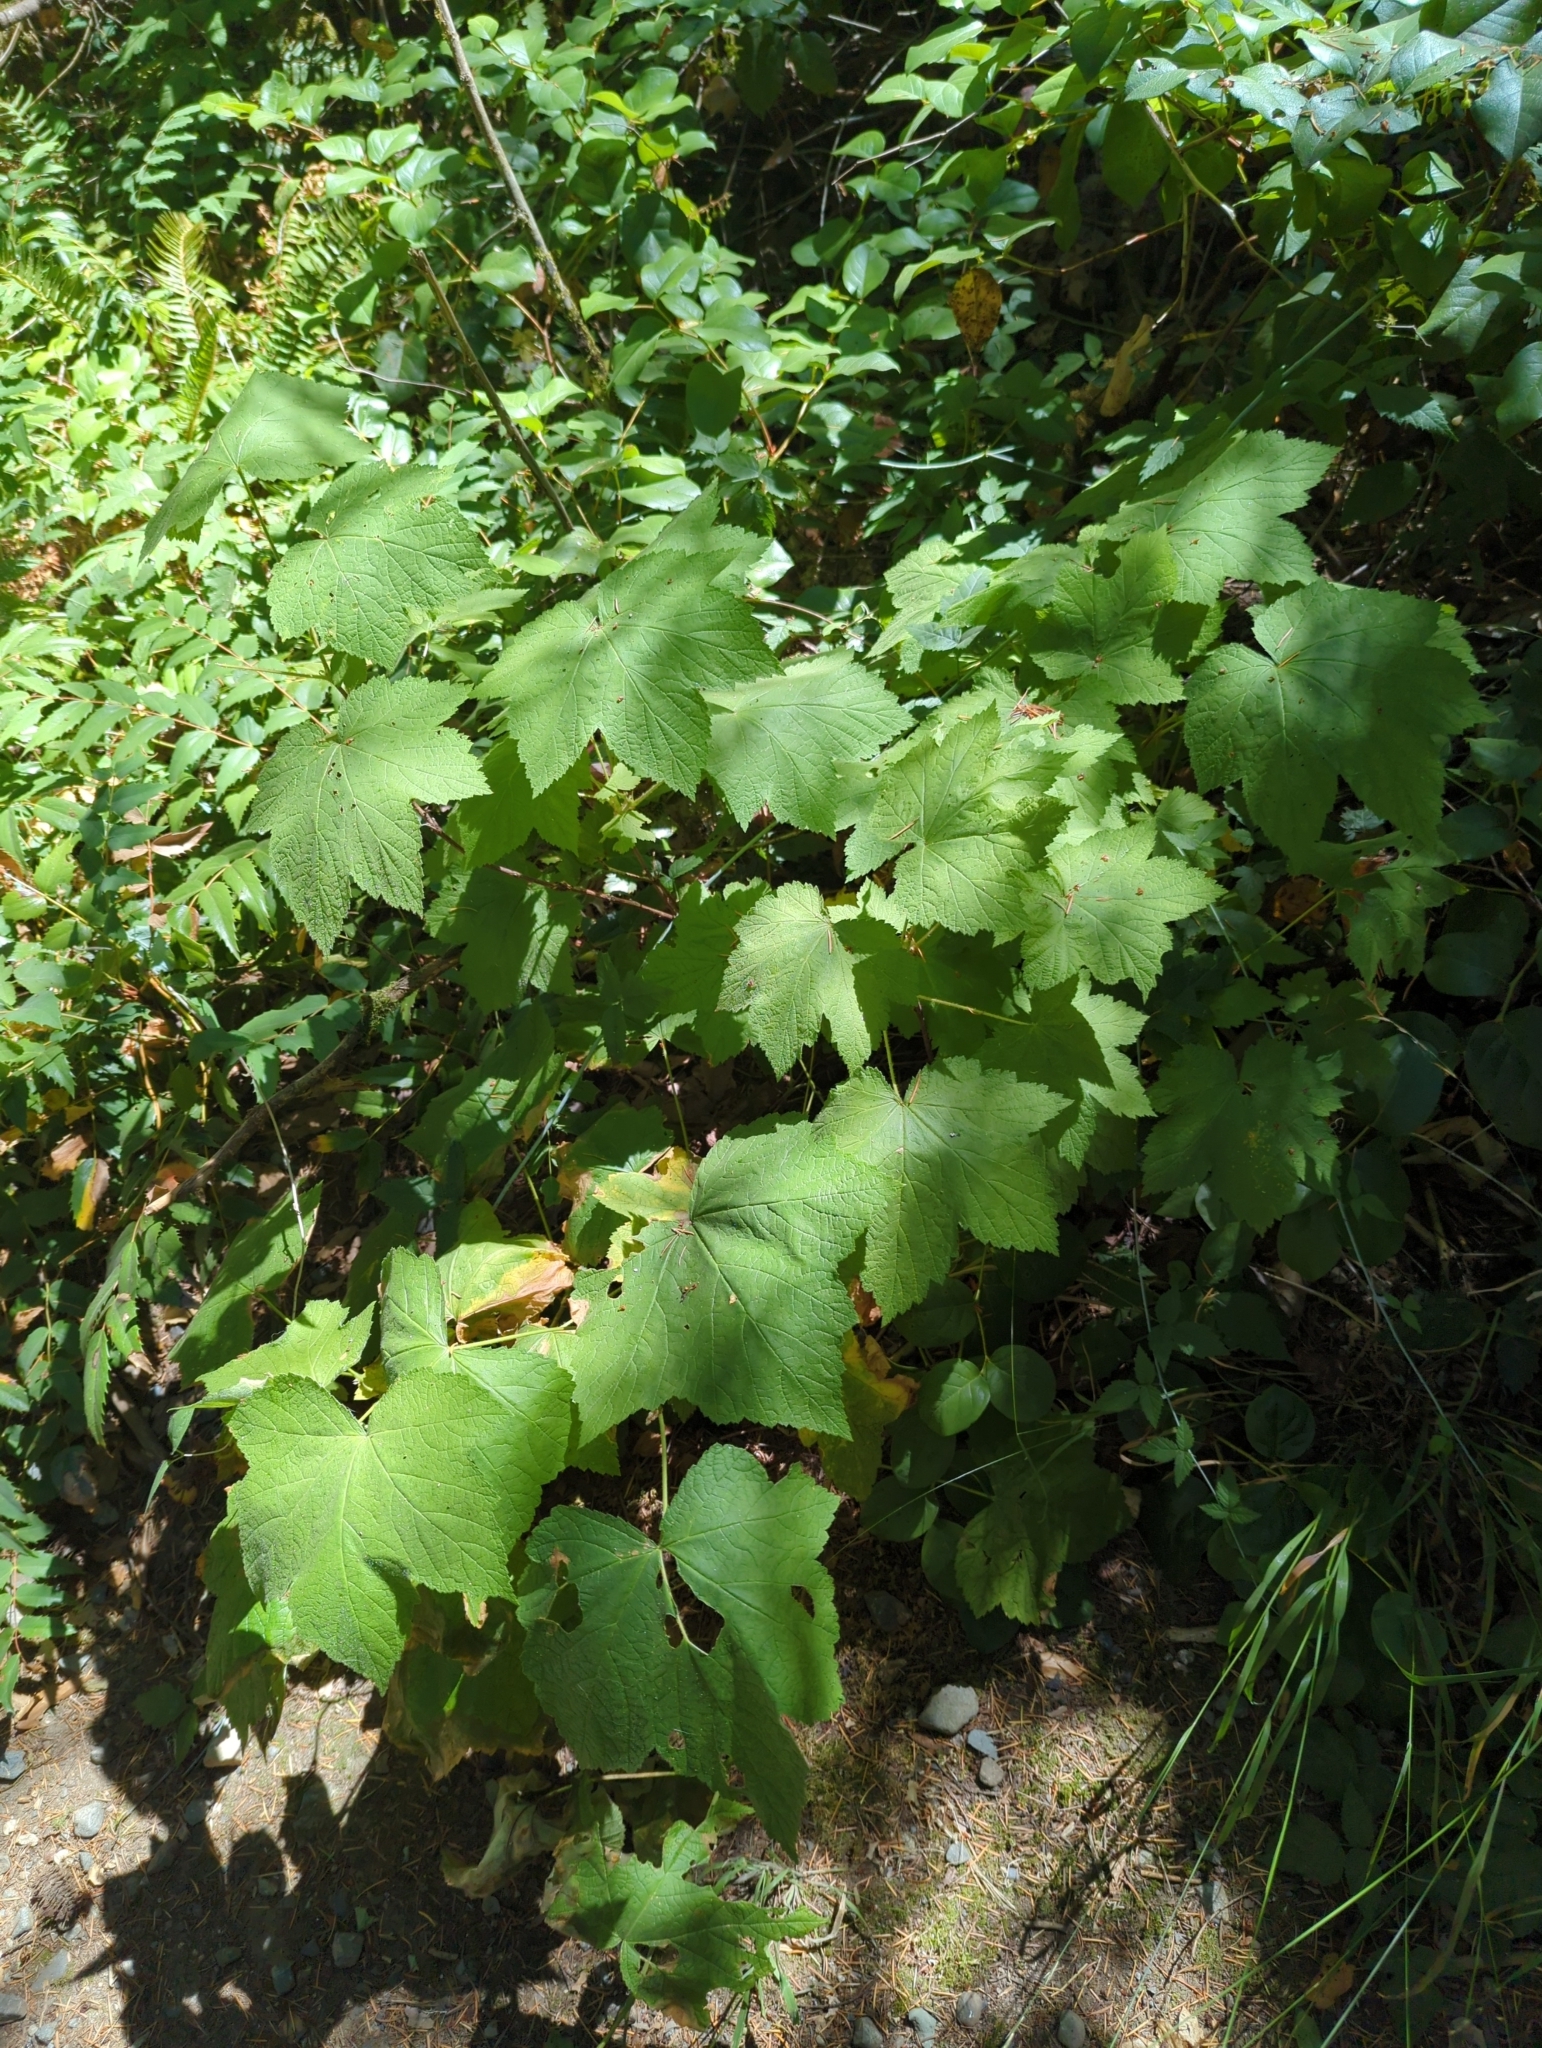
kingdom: Plantae
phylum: Tracheophyta
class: Magnoliopsida
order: Rosales
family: Rosaceae
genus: Rubus
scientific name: Rubus parviflorus
